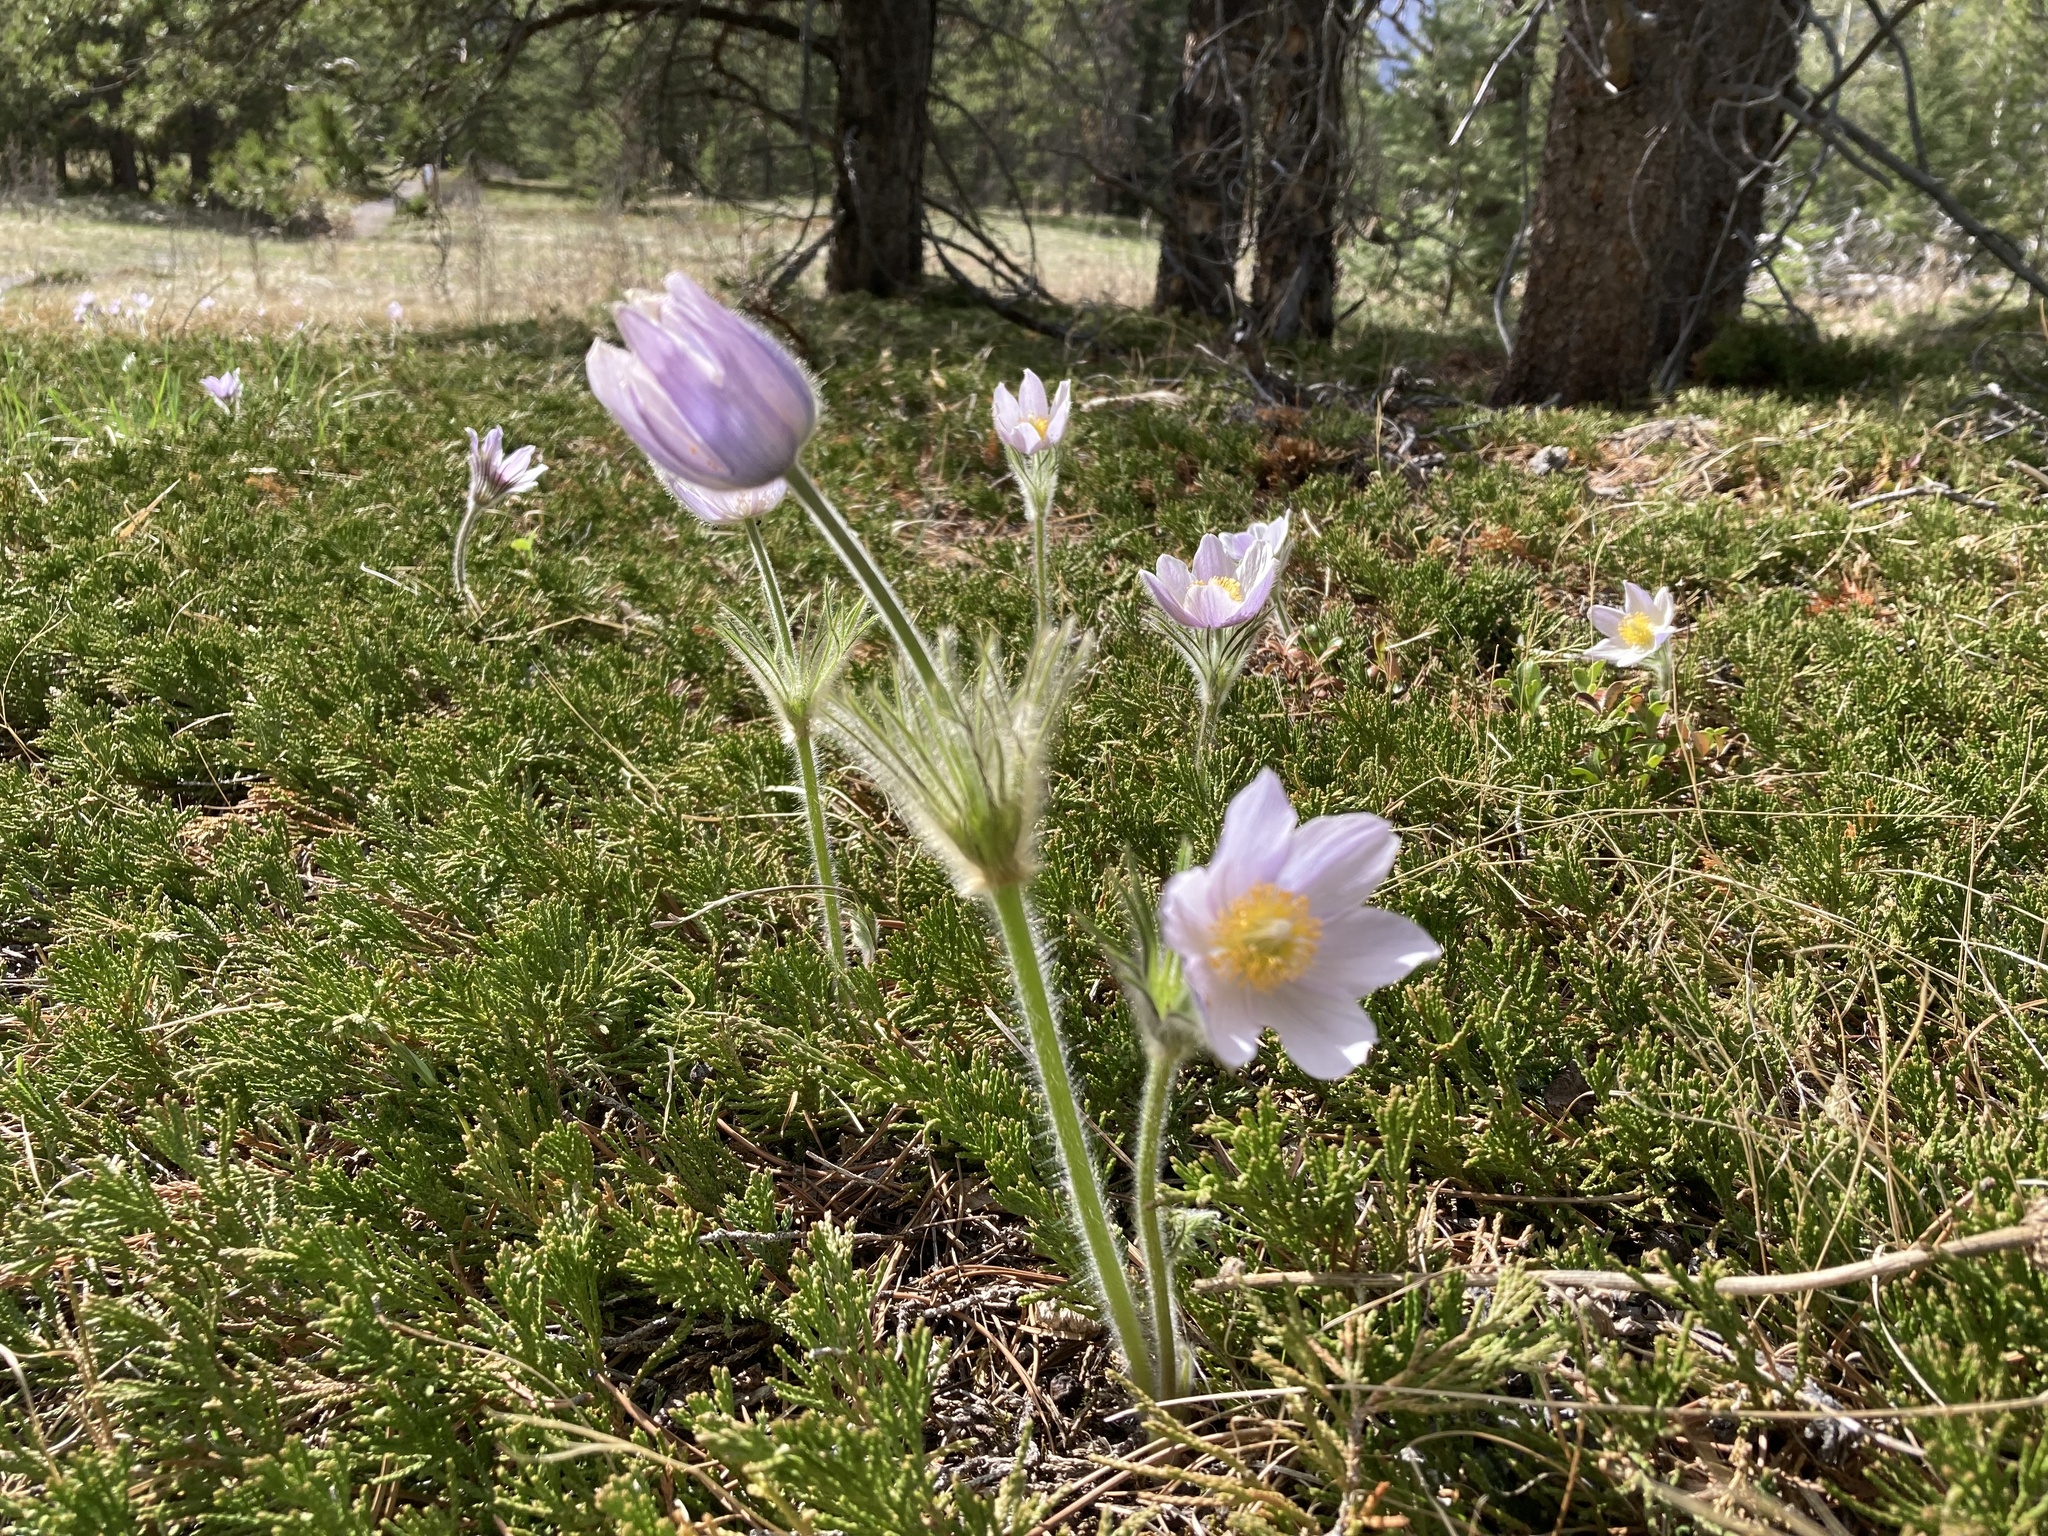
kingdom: Plantae
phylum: Tracheophyta
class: Magnoliopsida
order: Ranunculales
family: Ranunculaceae
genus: Pulsatilla
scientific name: Pulsatilla nuttalliana
